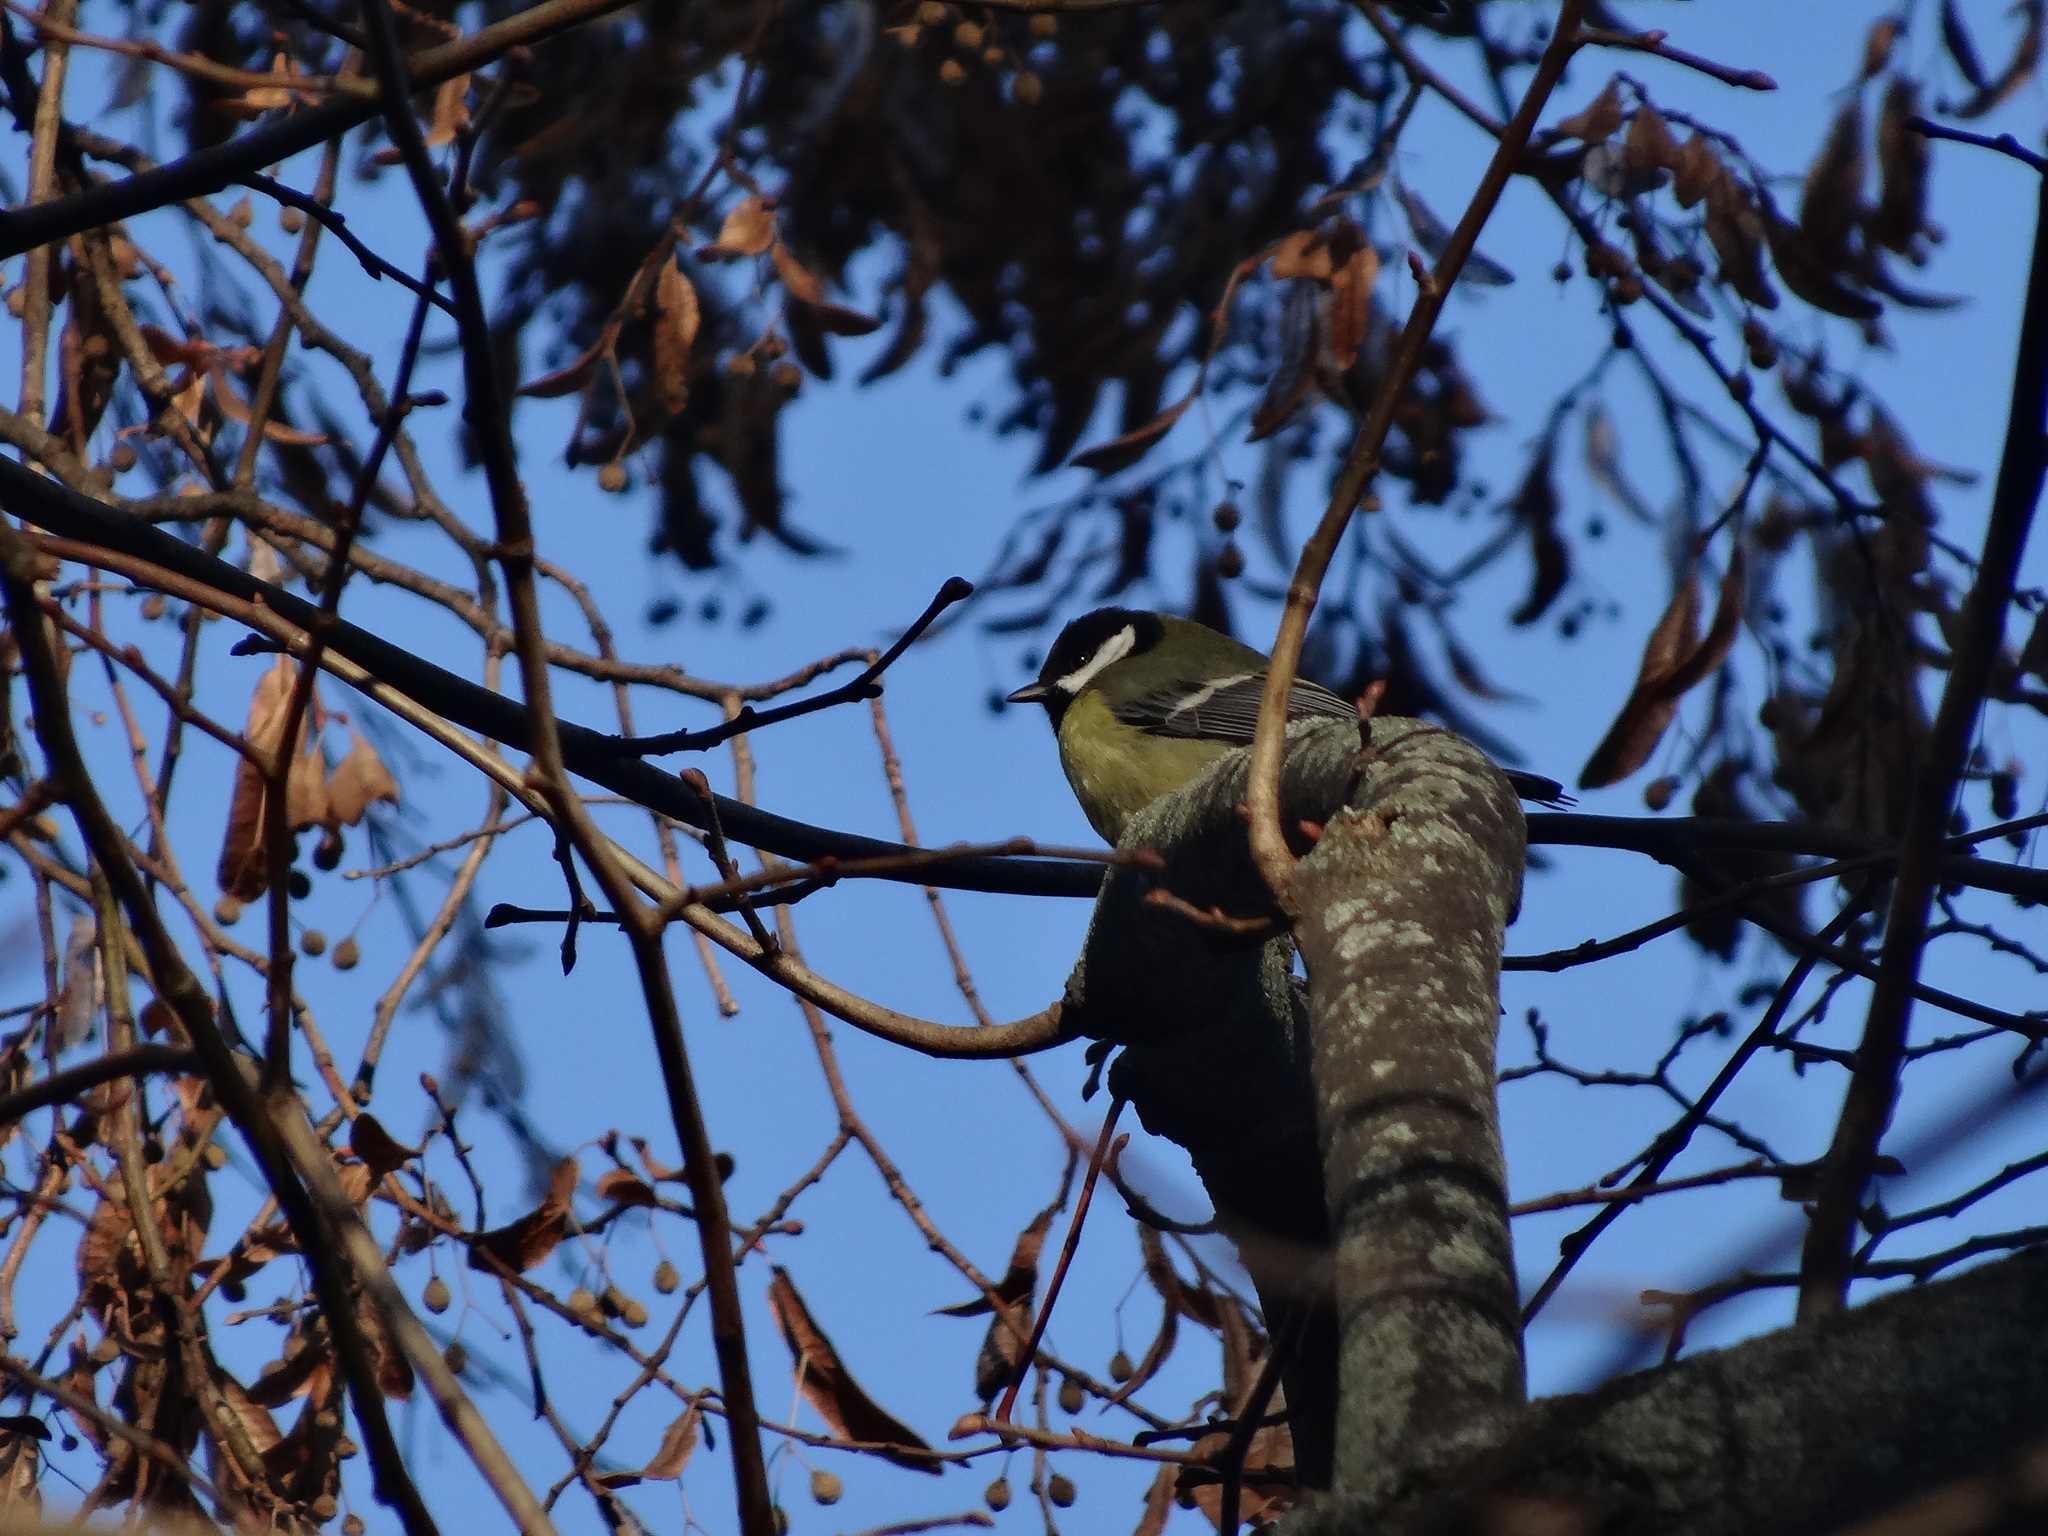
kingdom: Animalia
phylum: Chordata
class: Aves
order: Passeriformes
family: Paridae
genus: Parus
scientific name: Parus major
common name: Great tit
